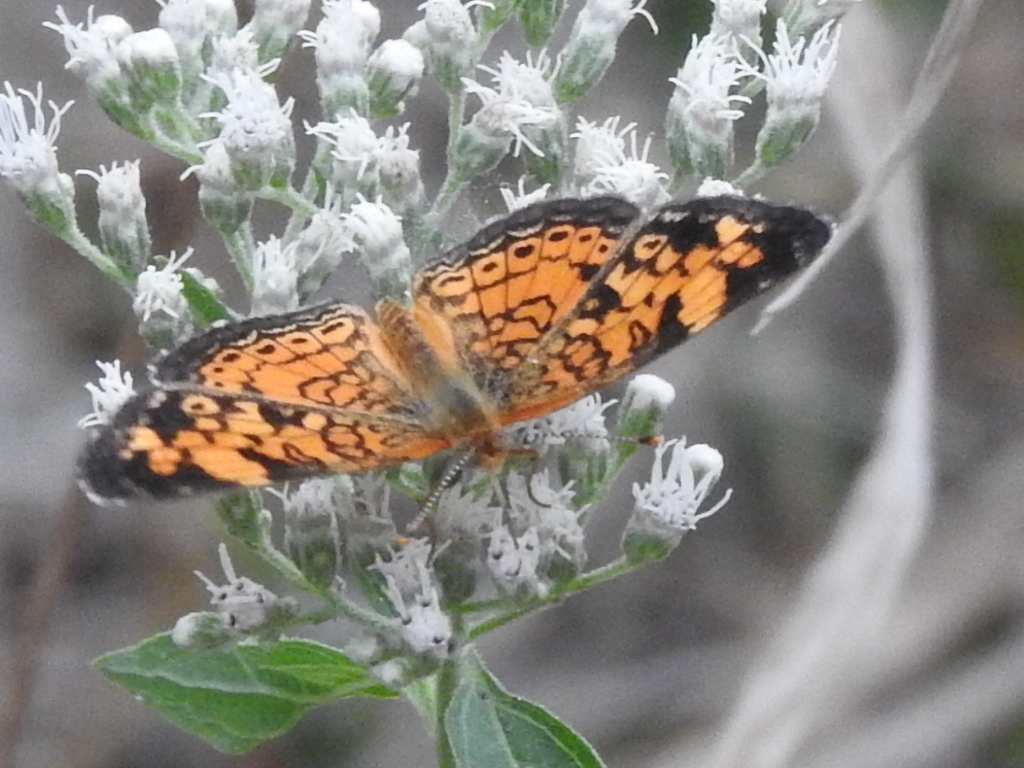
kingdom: Animalia
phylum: Arthropoda
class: Insecta
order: Lepidoptera
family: Nymphalidae
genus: Phyciodes
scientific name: Phyciodes tharos
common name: Pearl crescent
